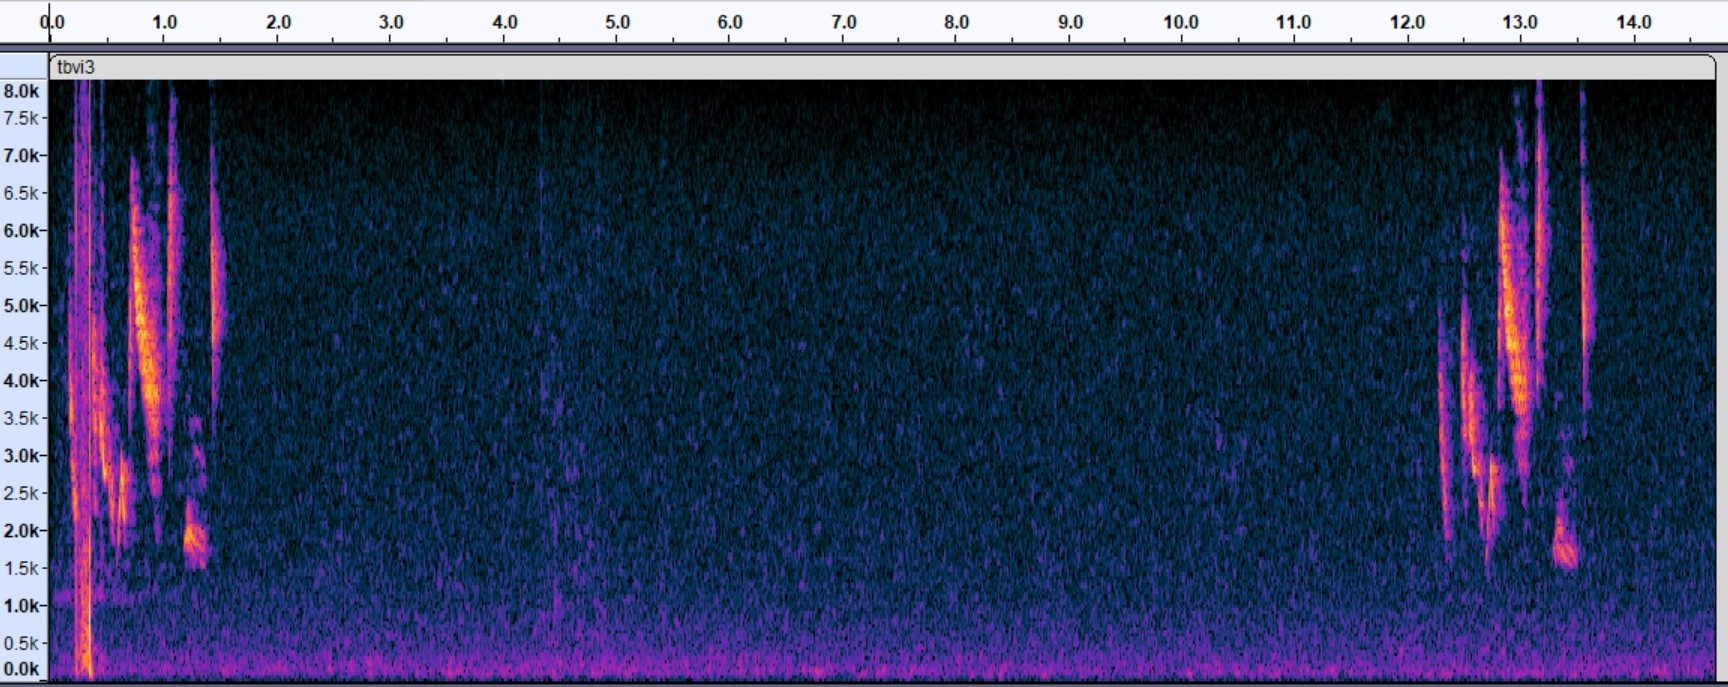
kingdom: Animalia
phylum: Chordata
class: Aves
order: Passeriformes
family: Vireonidae
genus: Vireo
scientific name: Vireo crassirostris
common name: Thick-billed vireo
